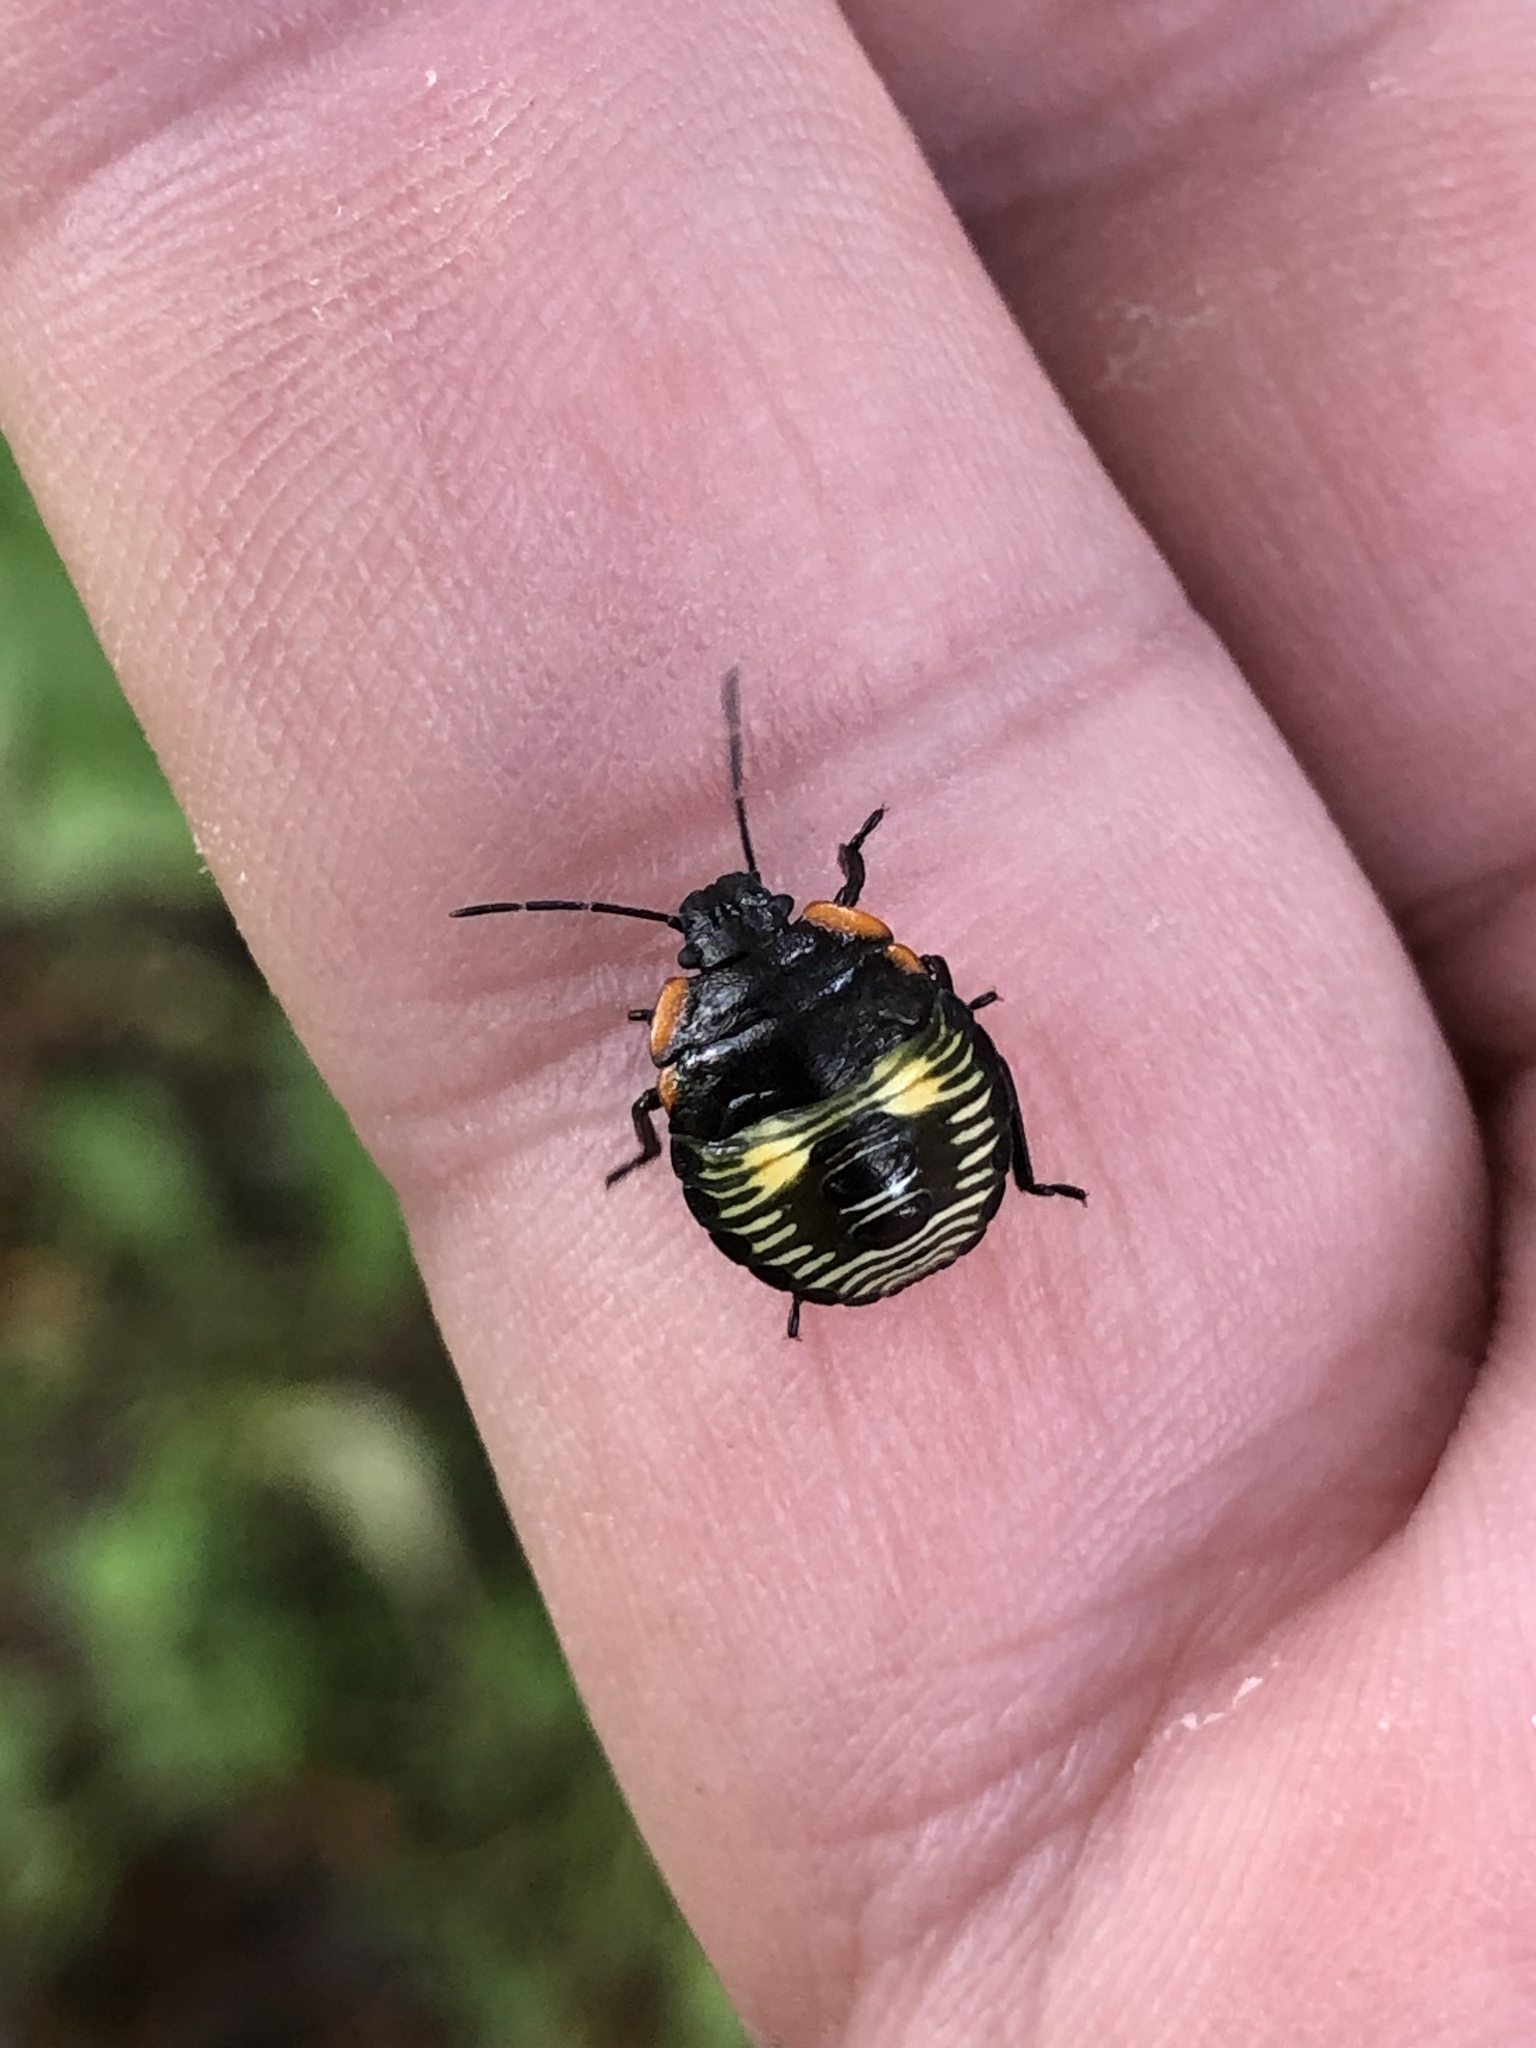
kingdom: Animalia
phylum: Arthropoda
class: Insecta
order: Hemiptera
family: Pentatomidae
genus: Chinavia
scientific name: Chinavia hilaris
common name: Green stink bug
